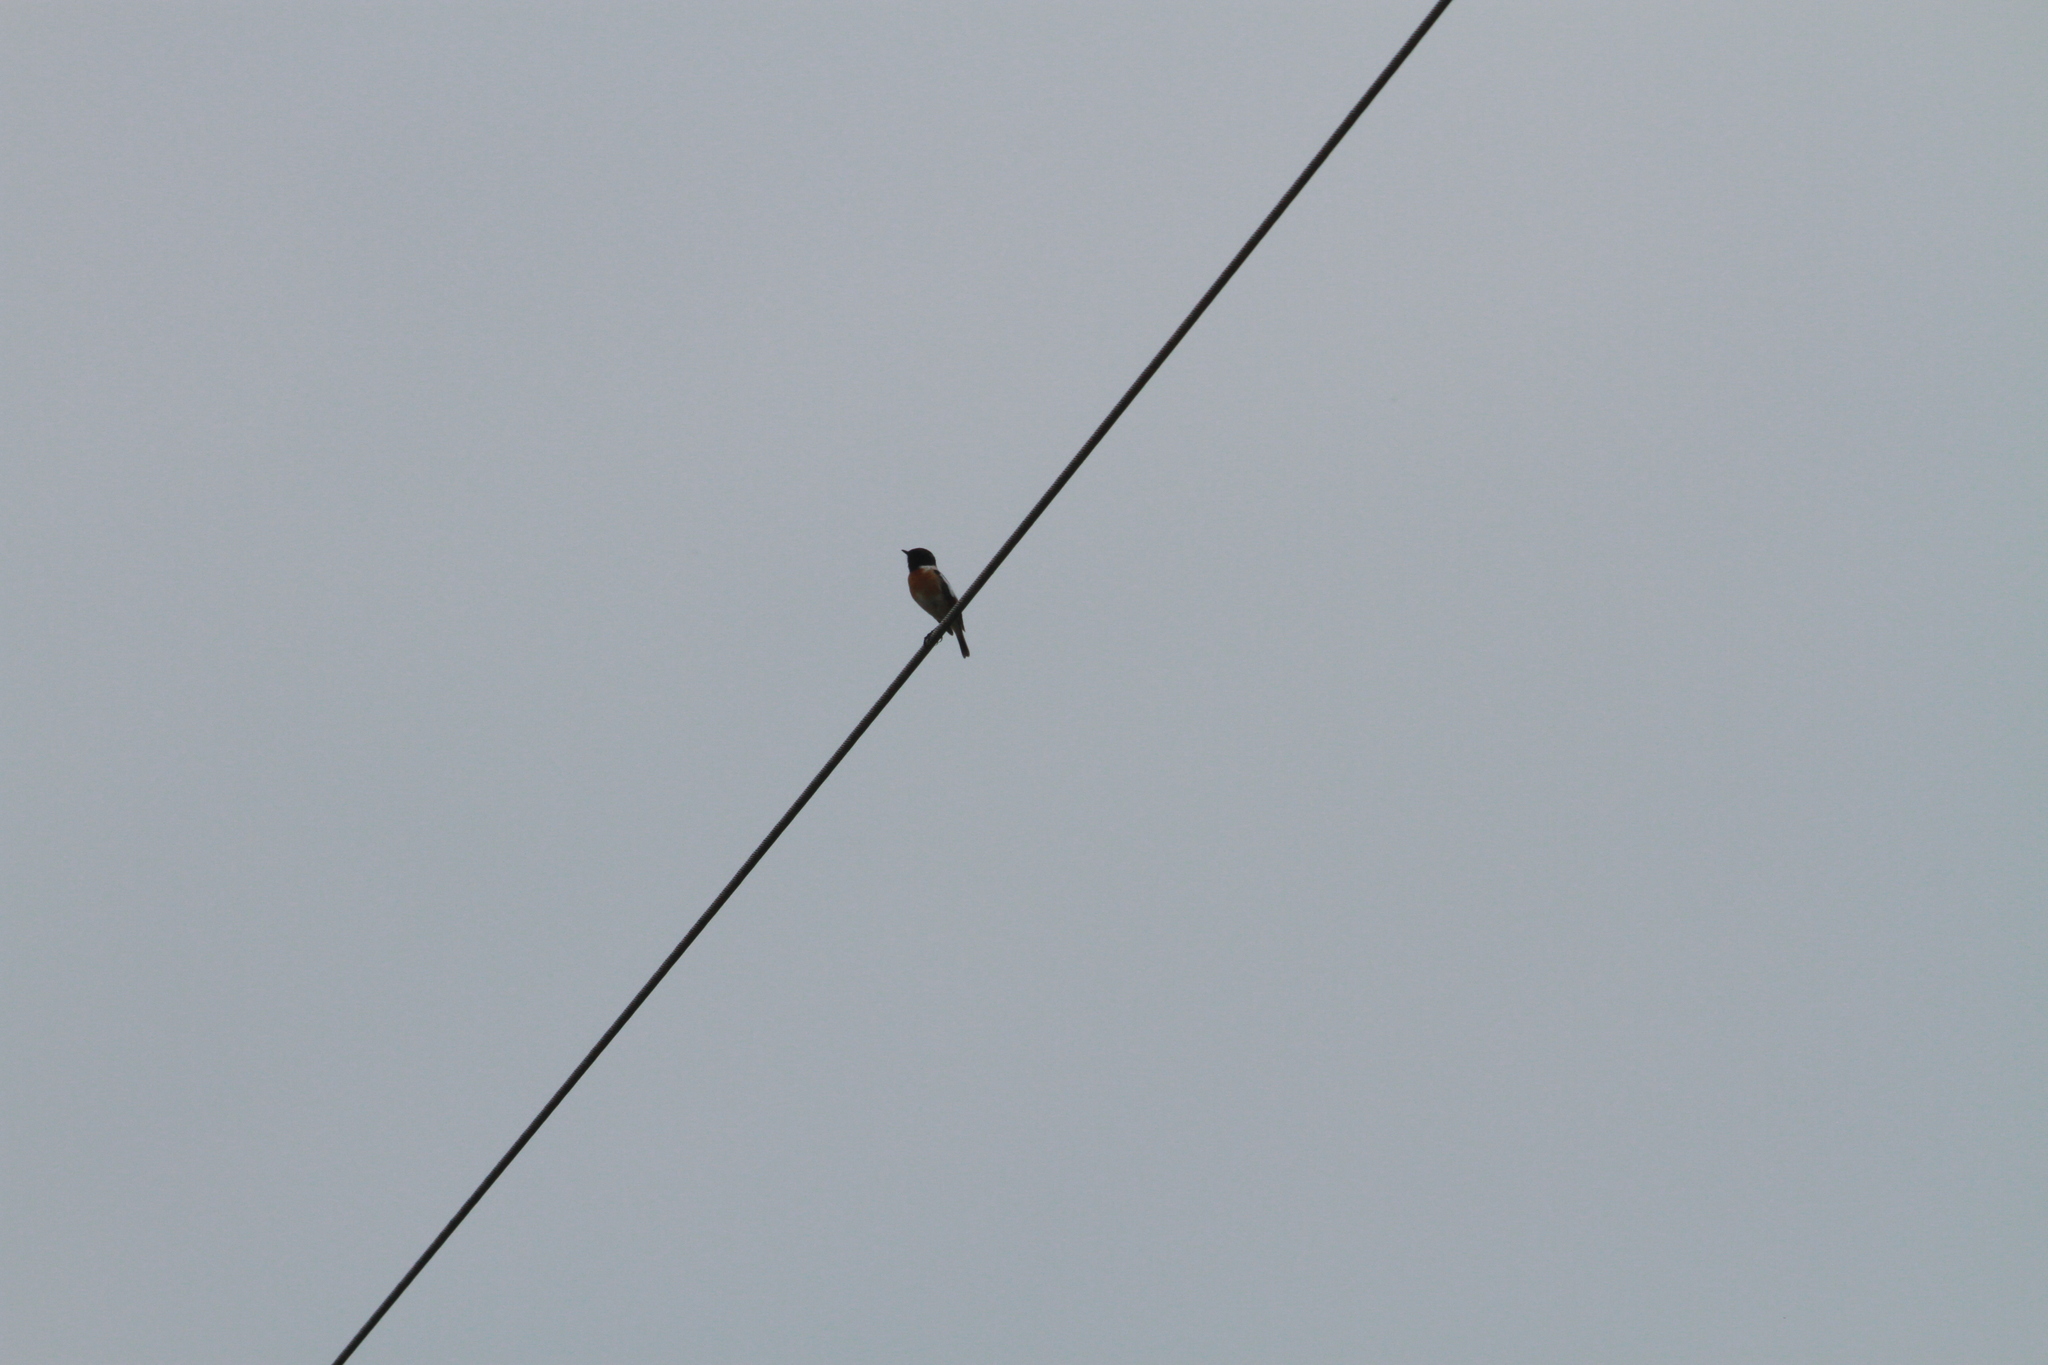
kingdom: Animalia
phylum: Chordata
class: Aves
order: Passeriformes
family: Muscicapidae
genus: Saxicola
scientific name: Saxicola rubicola
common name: European stonechat
